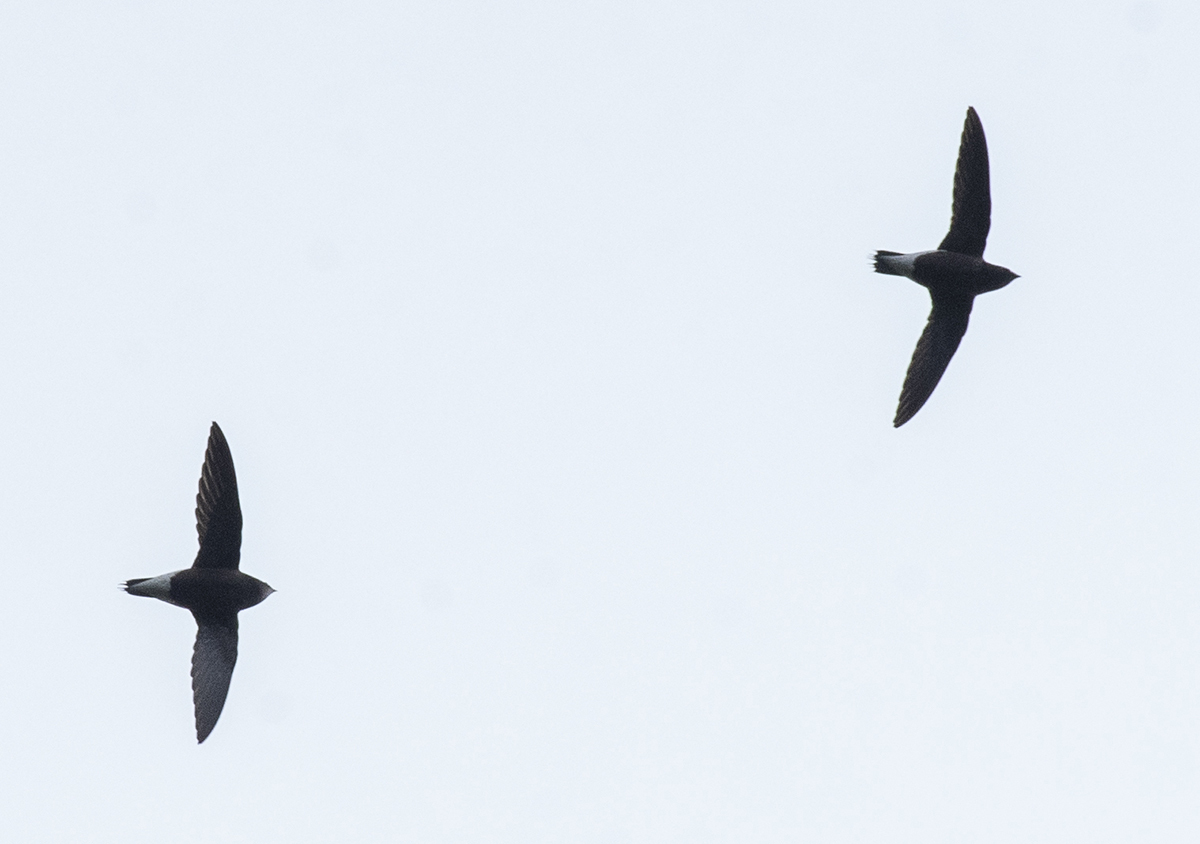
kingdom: Animalia
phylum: Chordata
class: Aves
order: Apodiformes
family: Apodidae
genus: Hirundapus
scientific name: Hirundapus giganteus
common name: Brown-backed needletail
